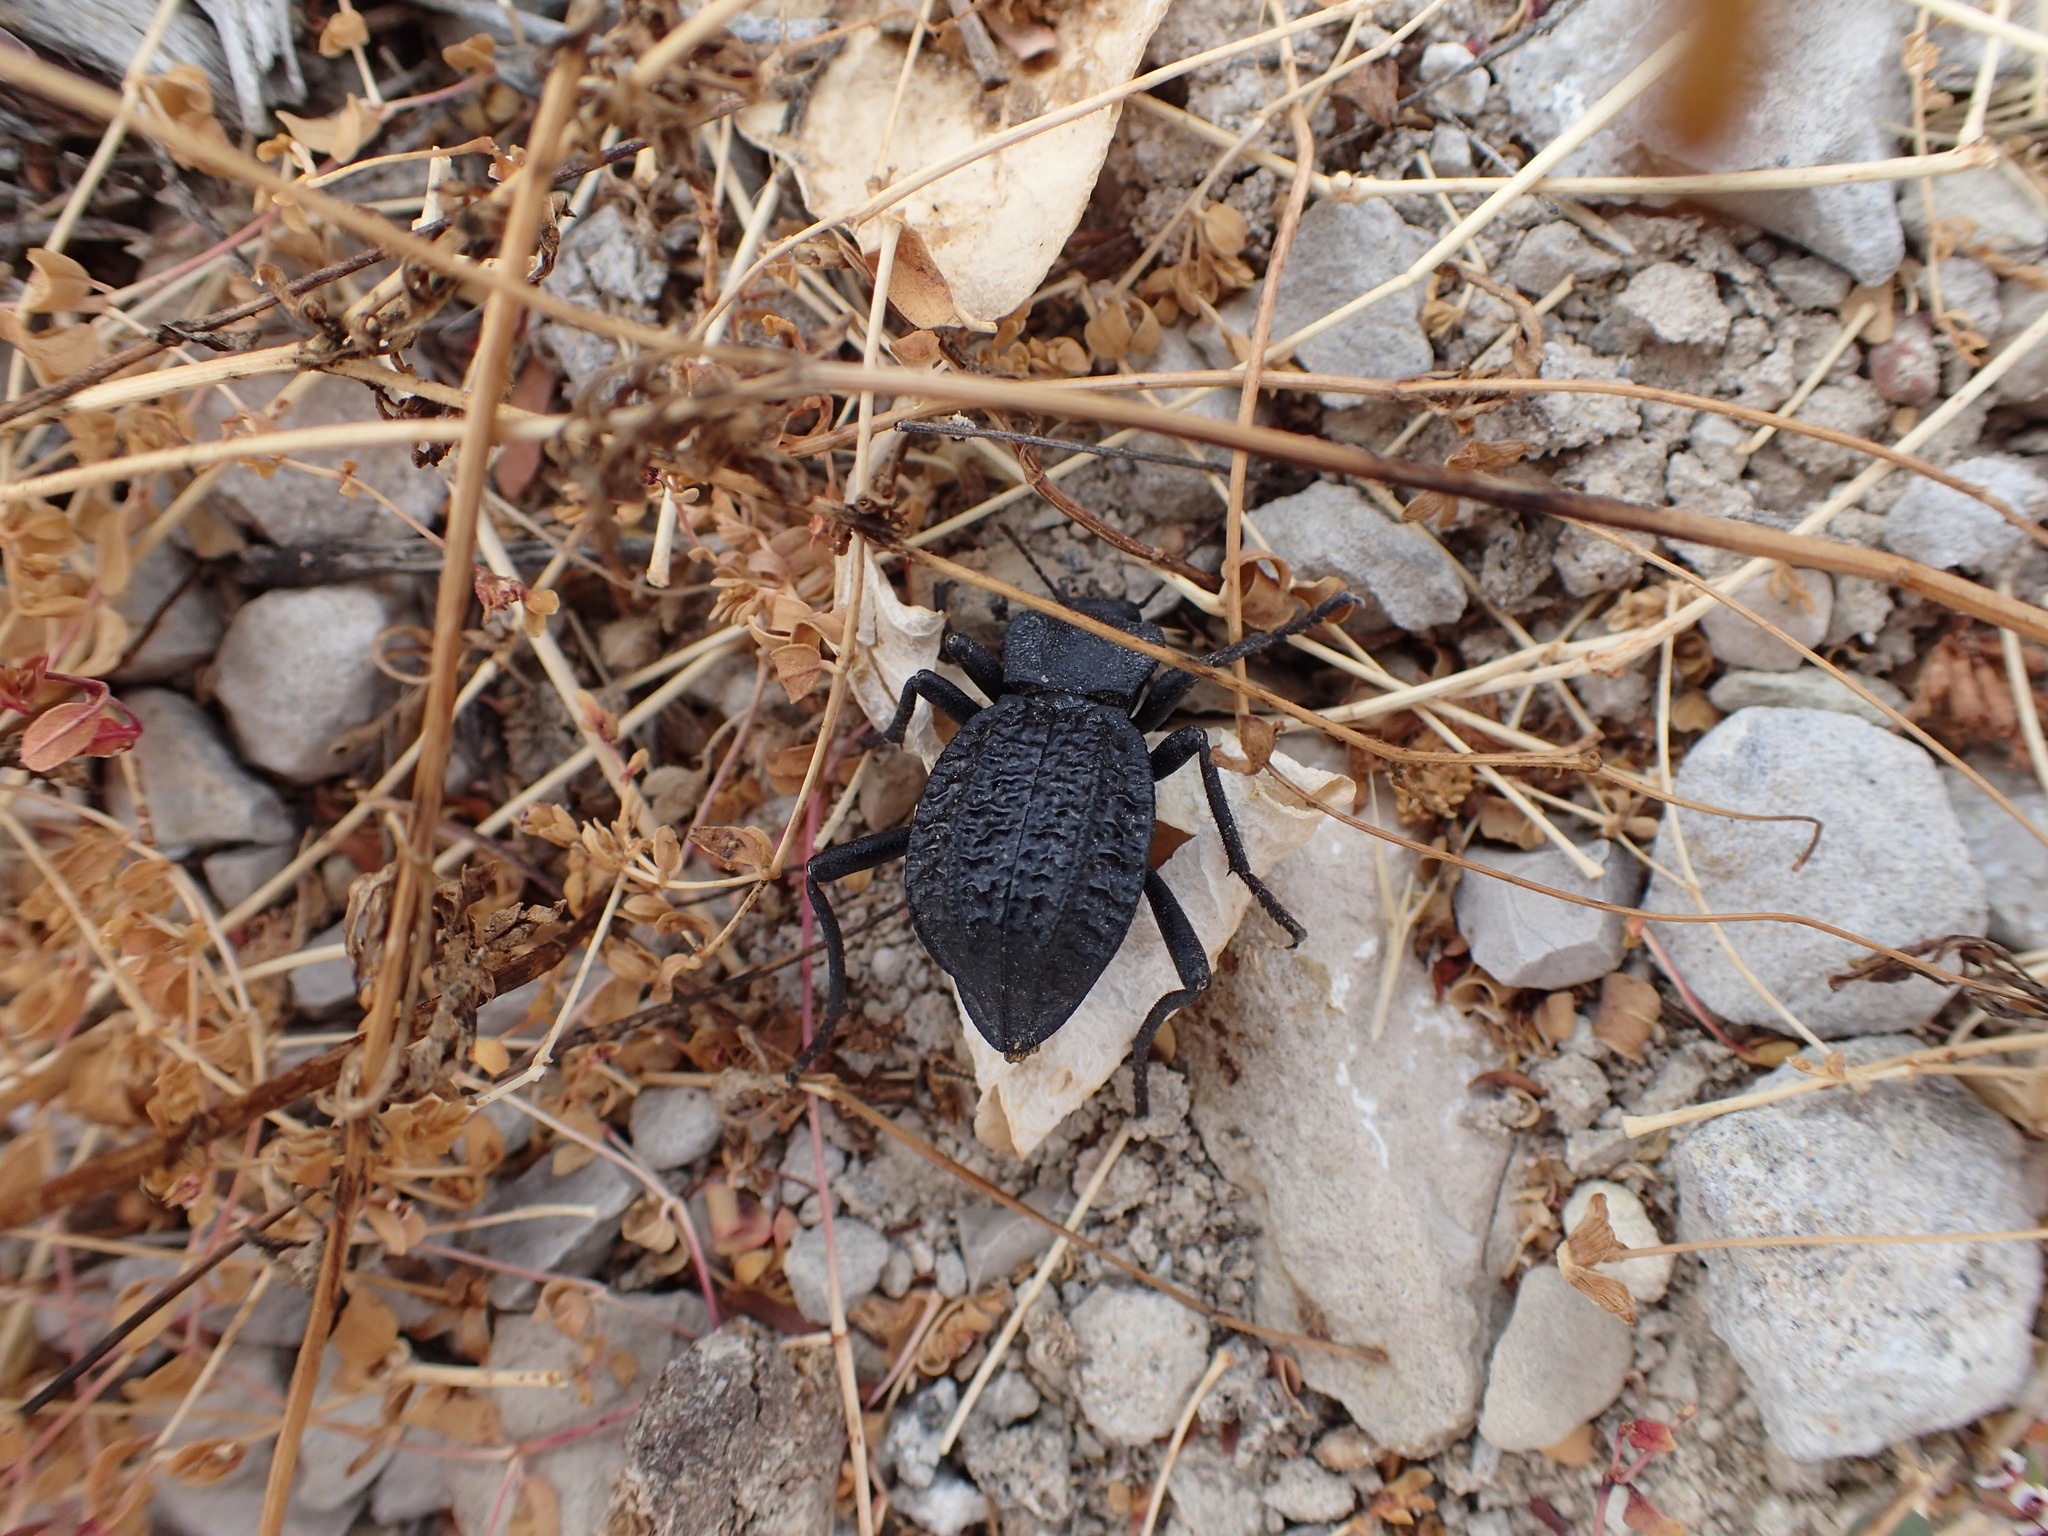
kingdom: Animalia
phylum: Arthropoda
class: Insecta
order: Coleoptera
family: Tenebrionidae
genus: Philolithus
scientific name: Philolithus aegrotus
